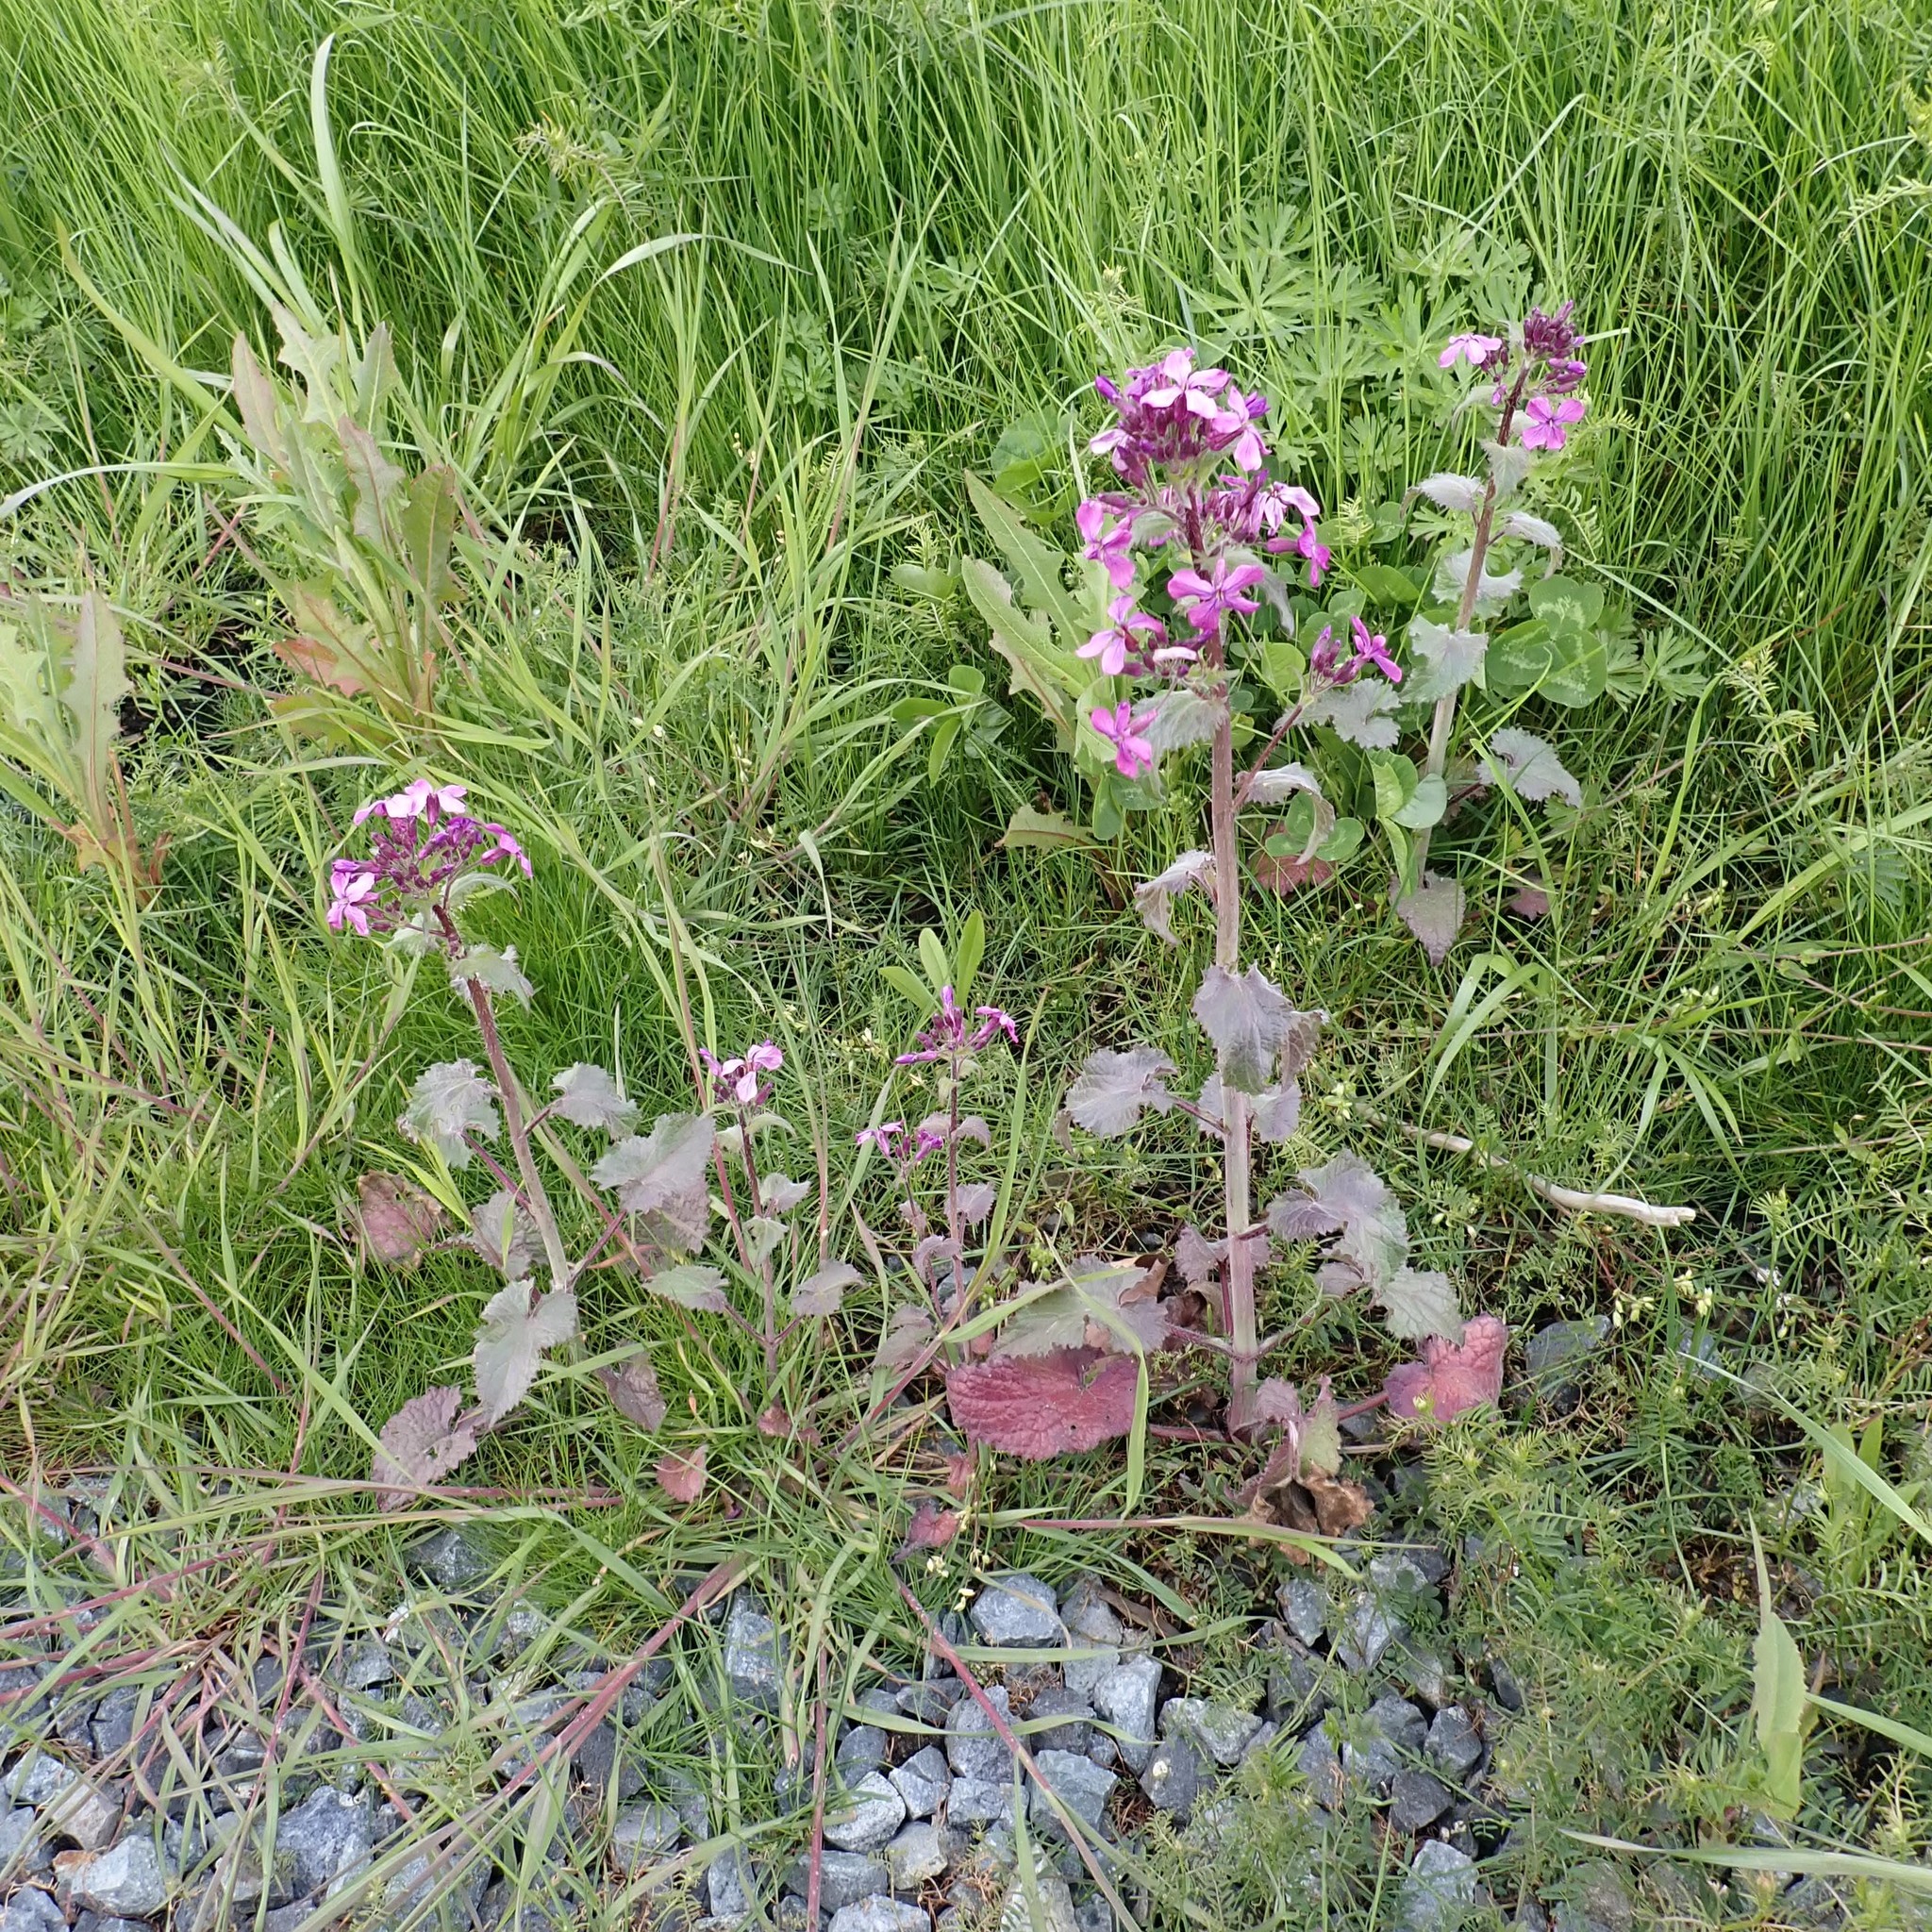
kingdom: Plantae
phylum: Tracheophyta
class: Magnoliopsida
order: Brassicales
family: Brassicaceae
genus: Lunaria
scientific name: Lunaria annua
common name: Honesty
